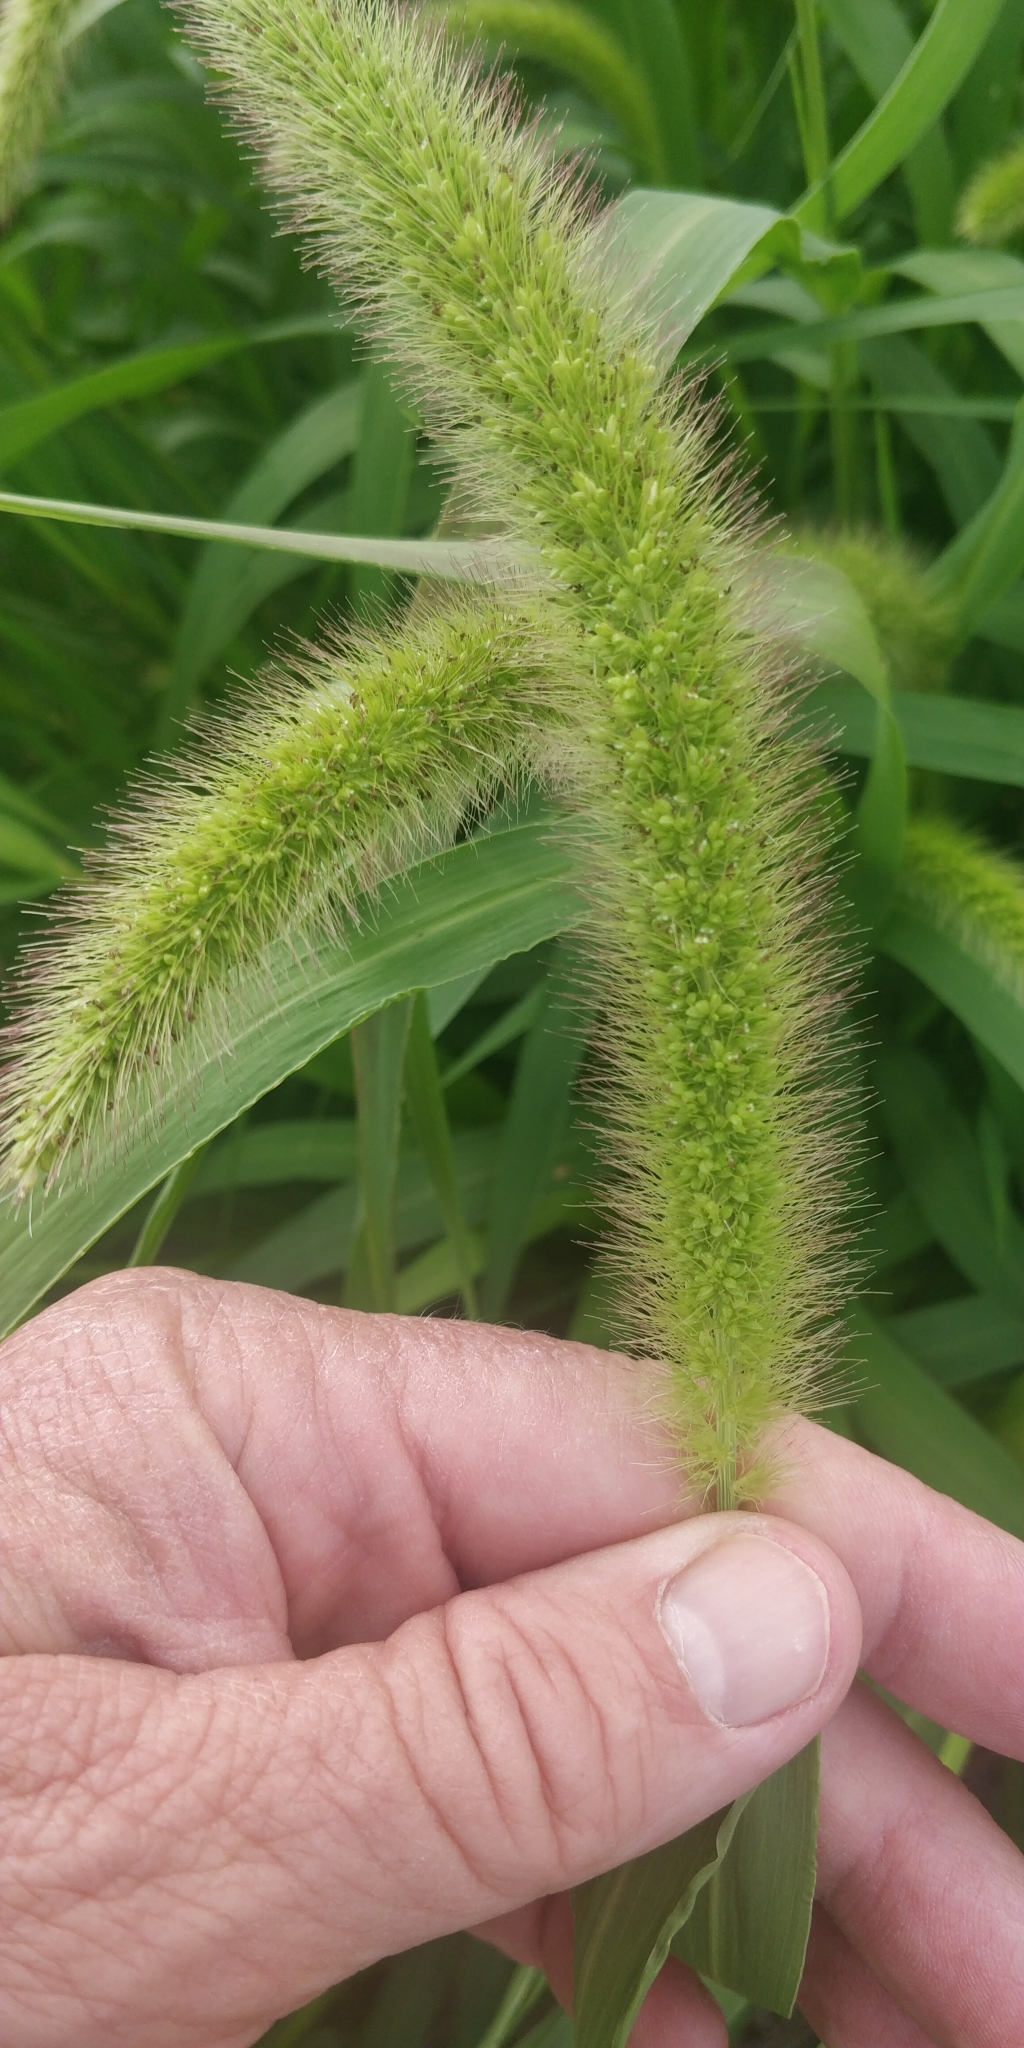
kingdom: Plantae
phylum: Tracheophyta
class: Liliopsida
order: Poales
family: Poaceae
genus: Setaria
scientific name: Setaria italica
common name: Foxtail bristle-grass
